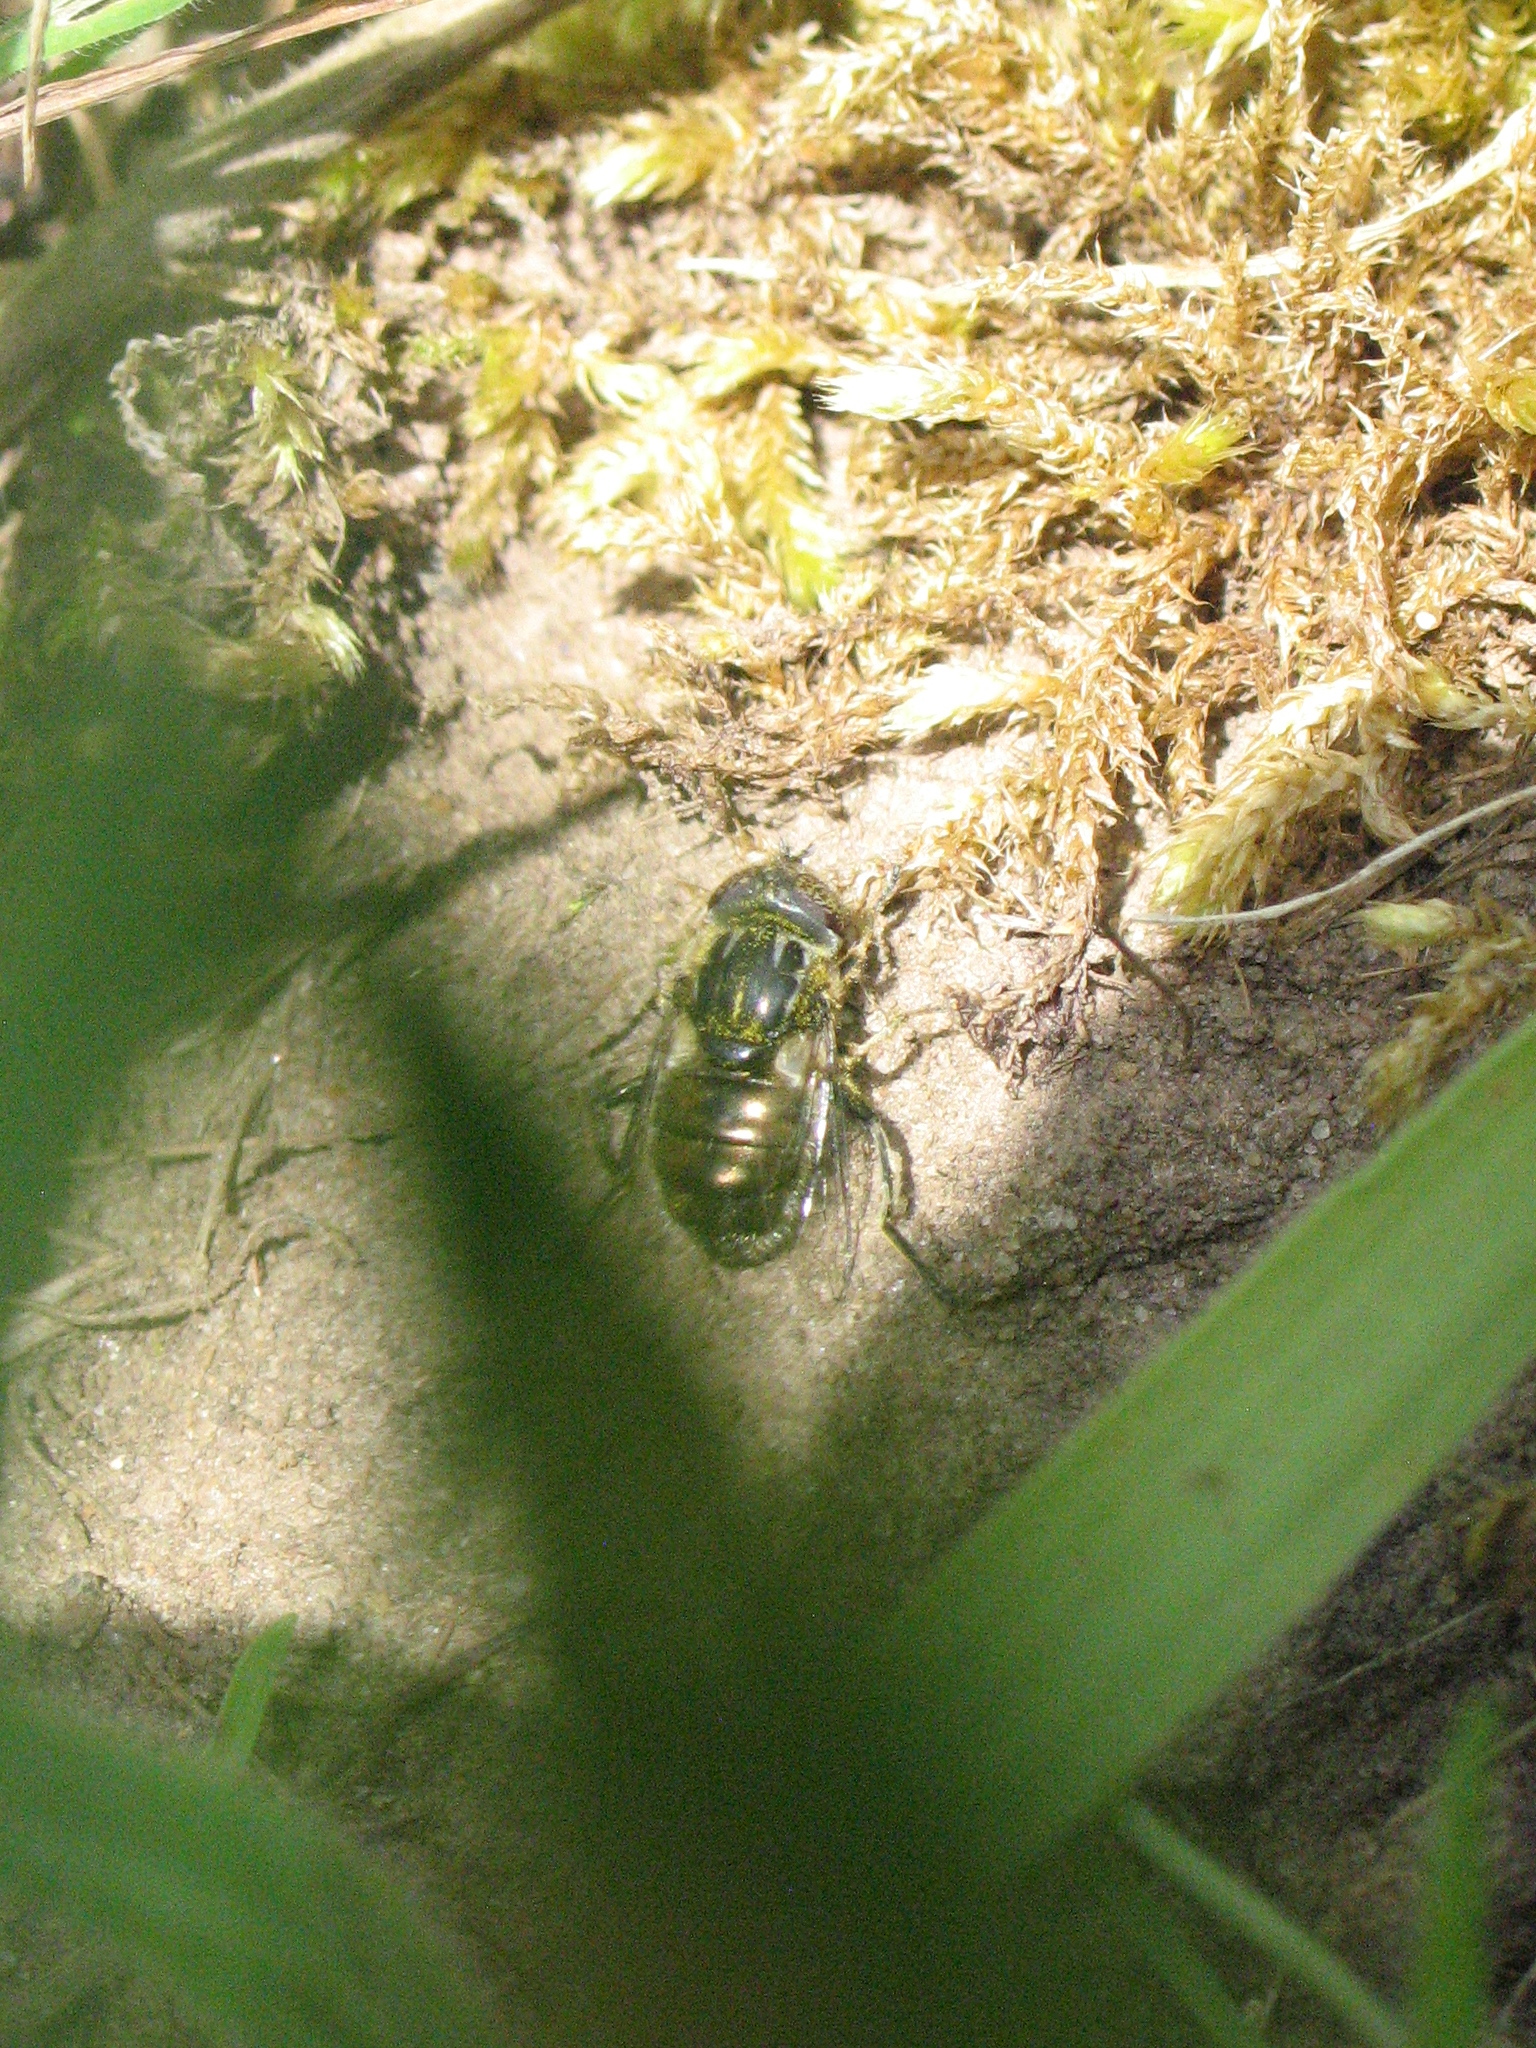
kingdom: Animalia
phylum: Arthropoda
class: Insecta
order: Diptera
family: Syrphidae
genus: Eristalinus
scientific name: Eristalinus sepulchralis
